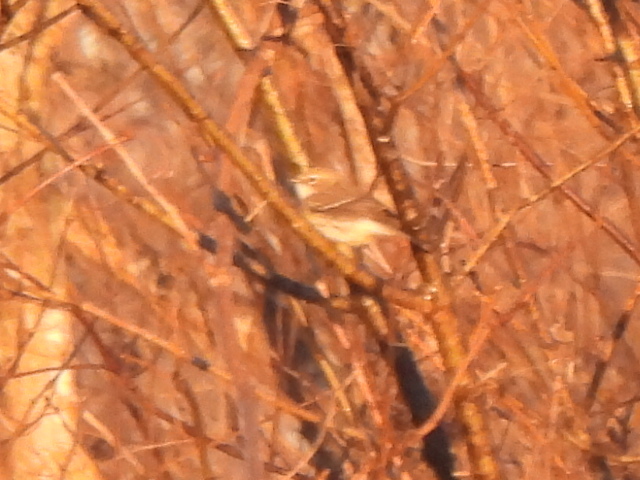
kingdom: Animalia
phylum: Chordata
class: Aves
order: Passeriformes
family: Parulidae
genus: Setophaga
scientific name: Setophaga coronata
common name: Myrtle warbler
